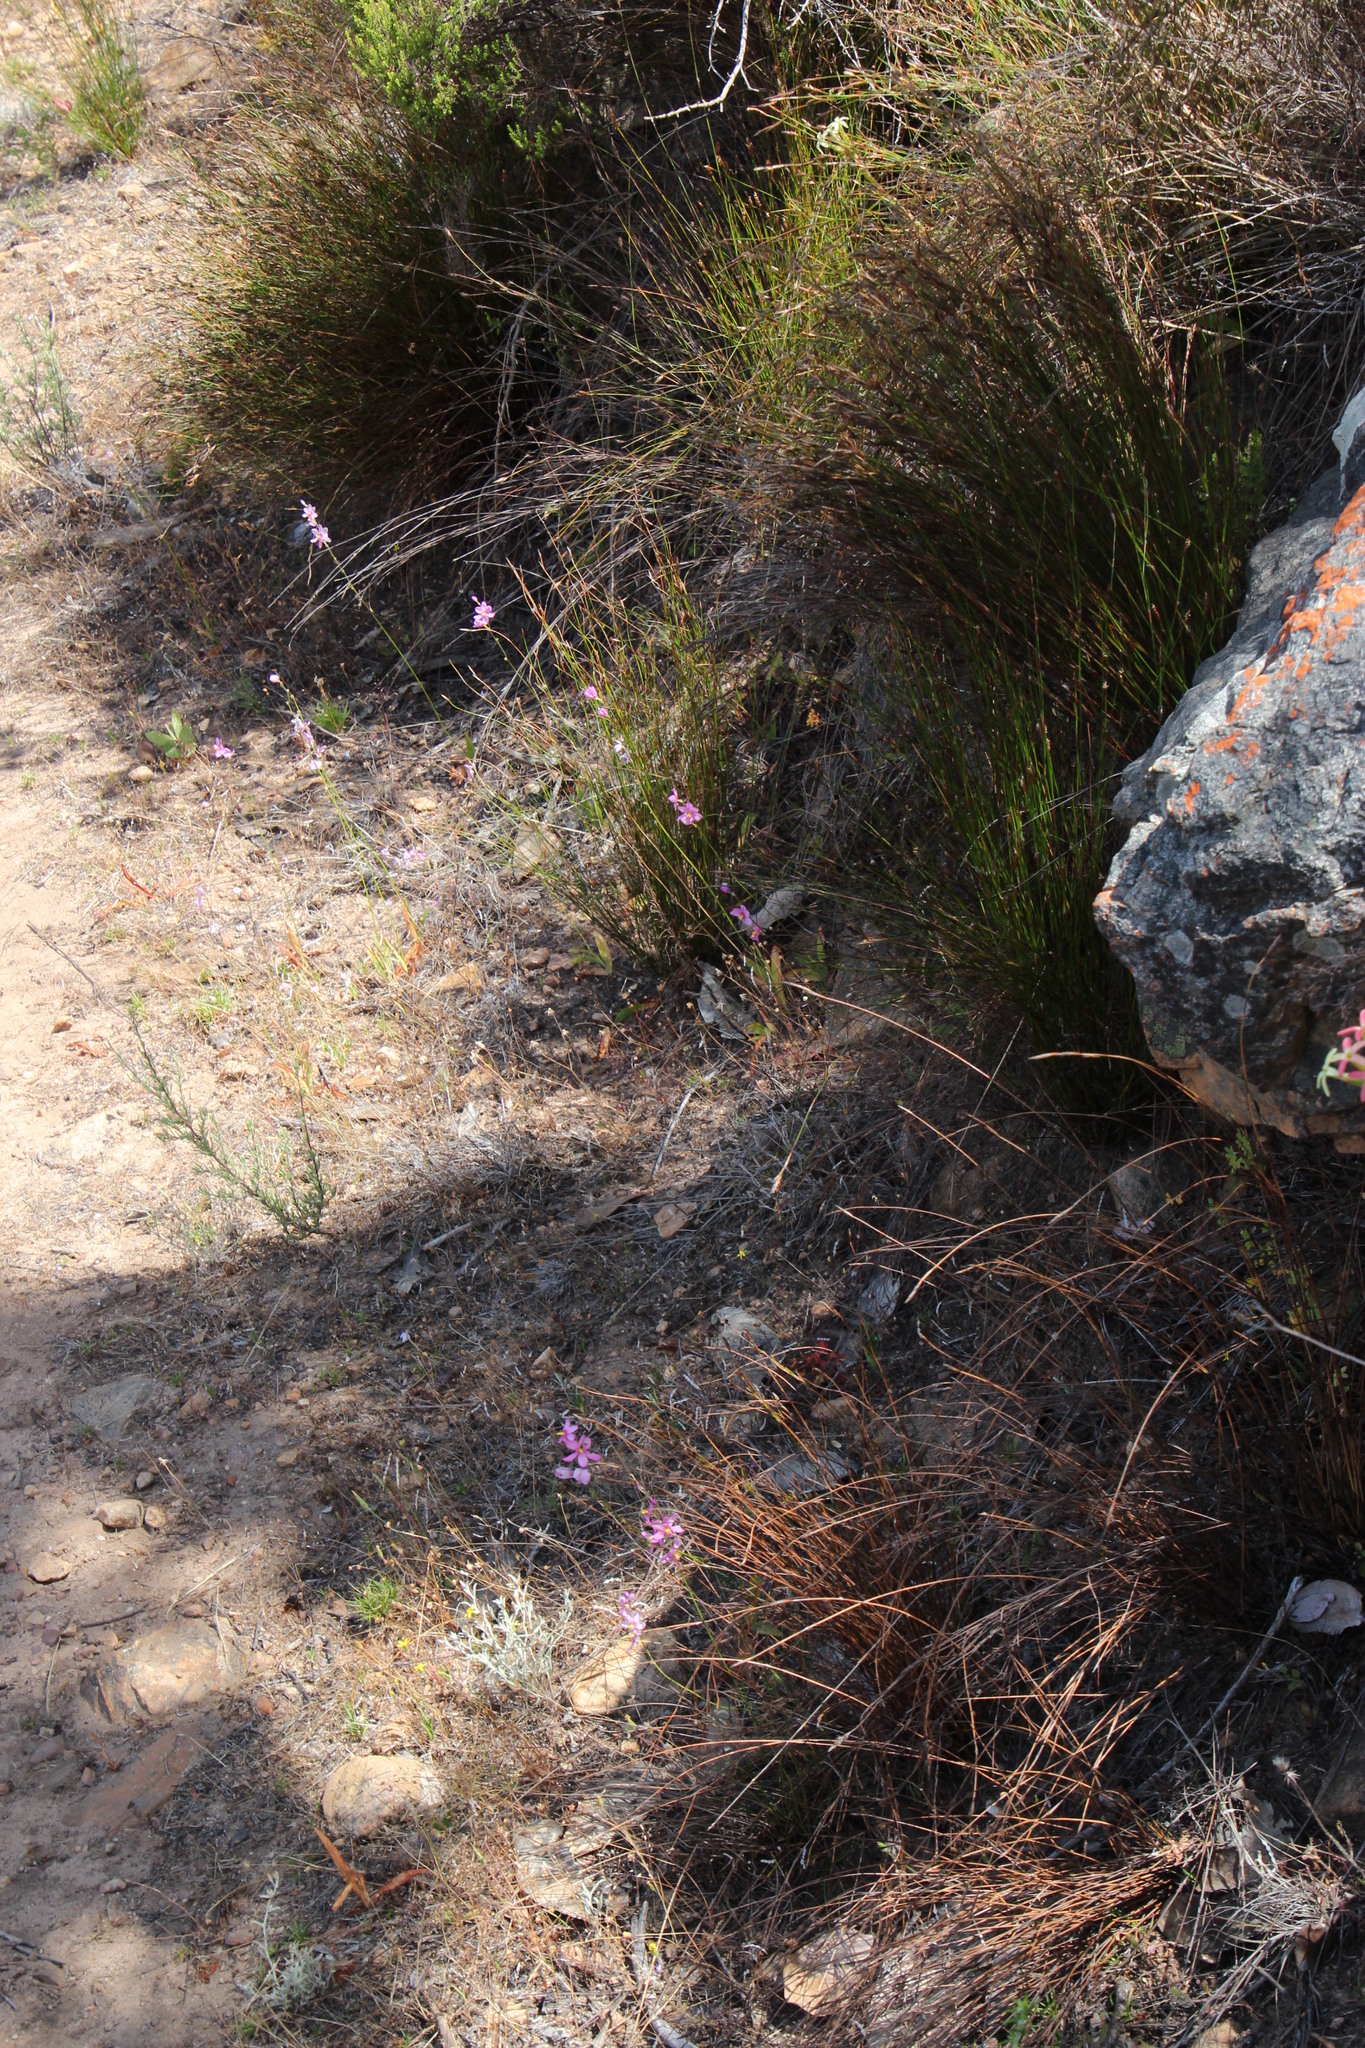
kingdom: Plantae
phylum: Tracheophyta
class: Liliopsida
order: Asparagales
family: Iridaceae
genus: Ixia
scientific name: Ixia scillaris
